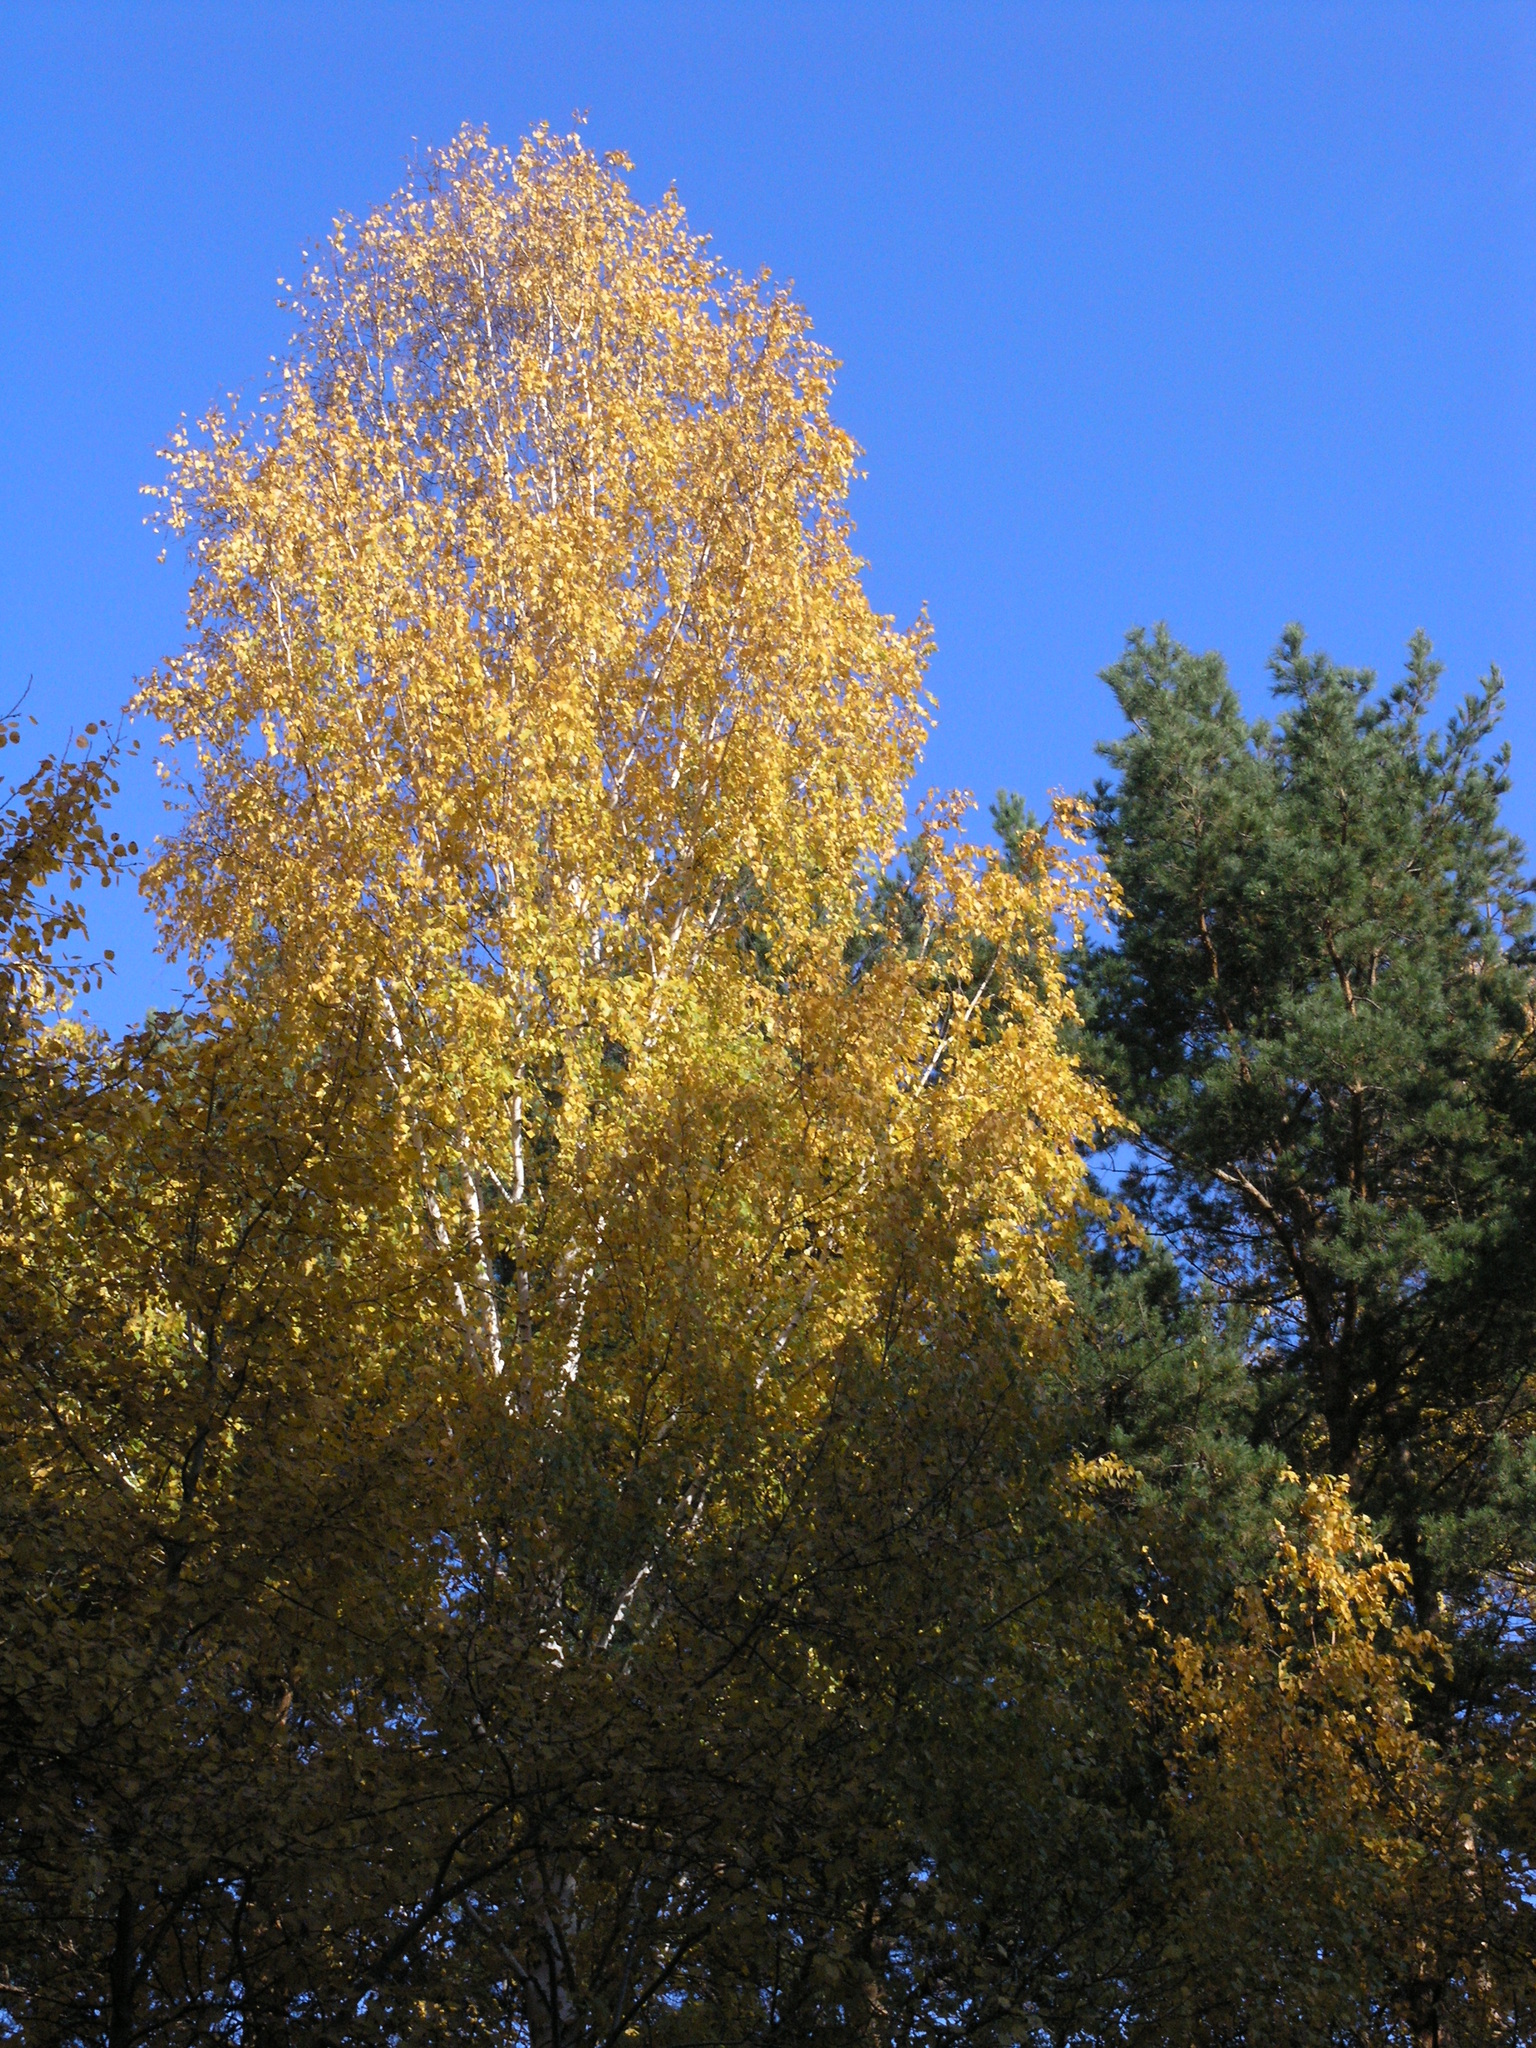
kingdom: Plantae
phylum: Tracheophyta
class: Pinopsida
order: Pinales
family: Pinaceae
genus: Pinus
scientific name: Pinus sylvestris
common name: Scots pine
